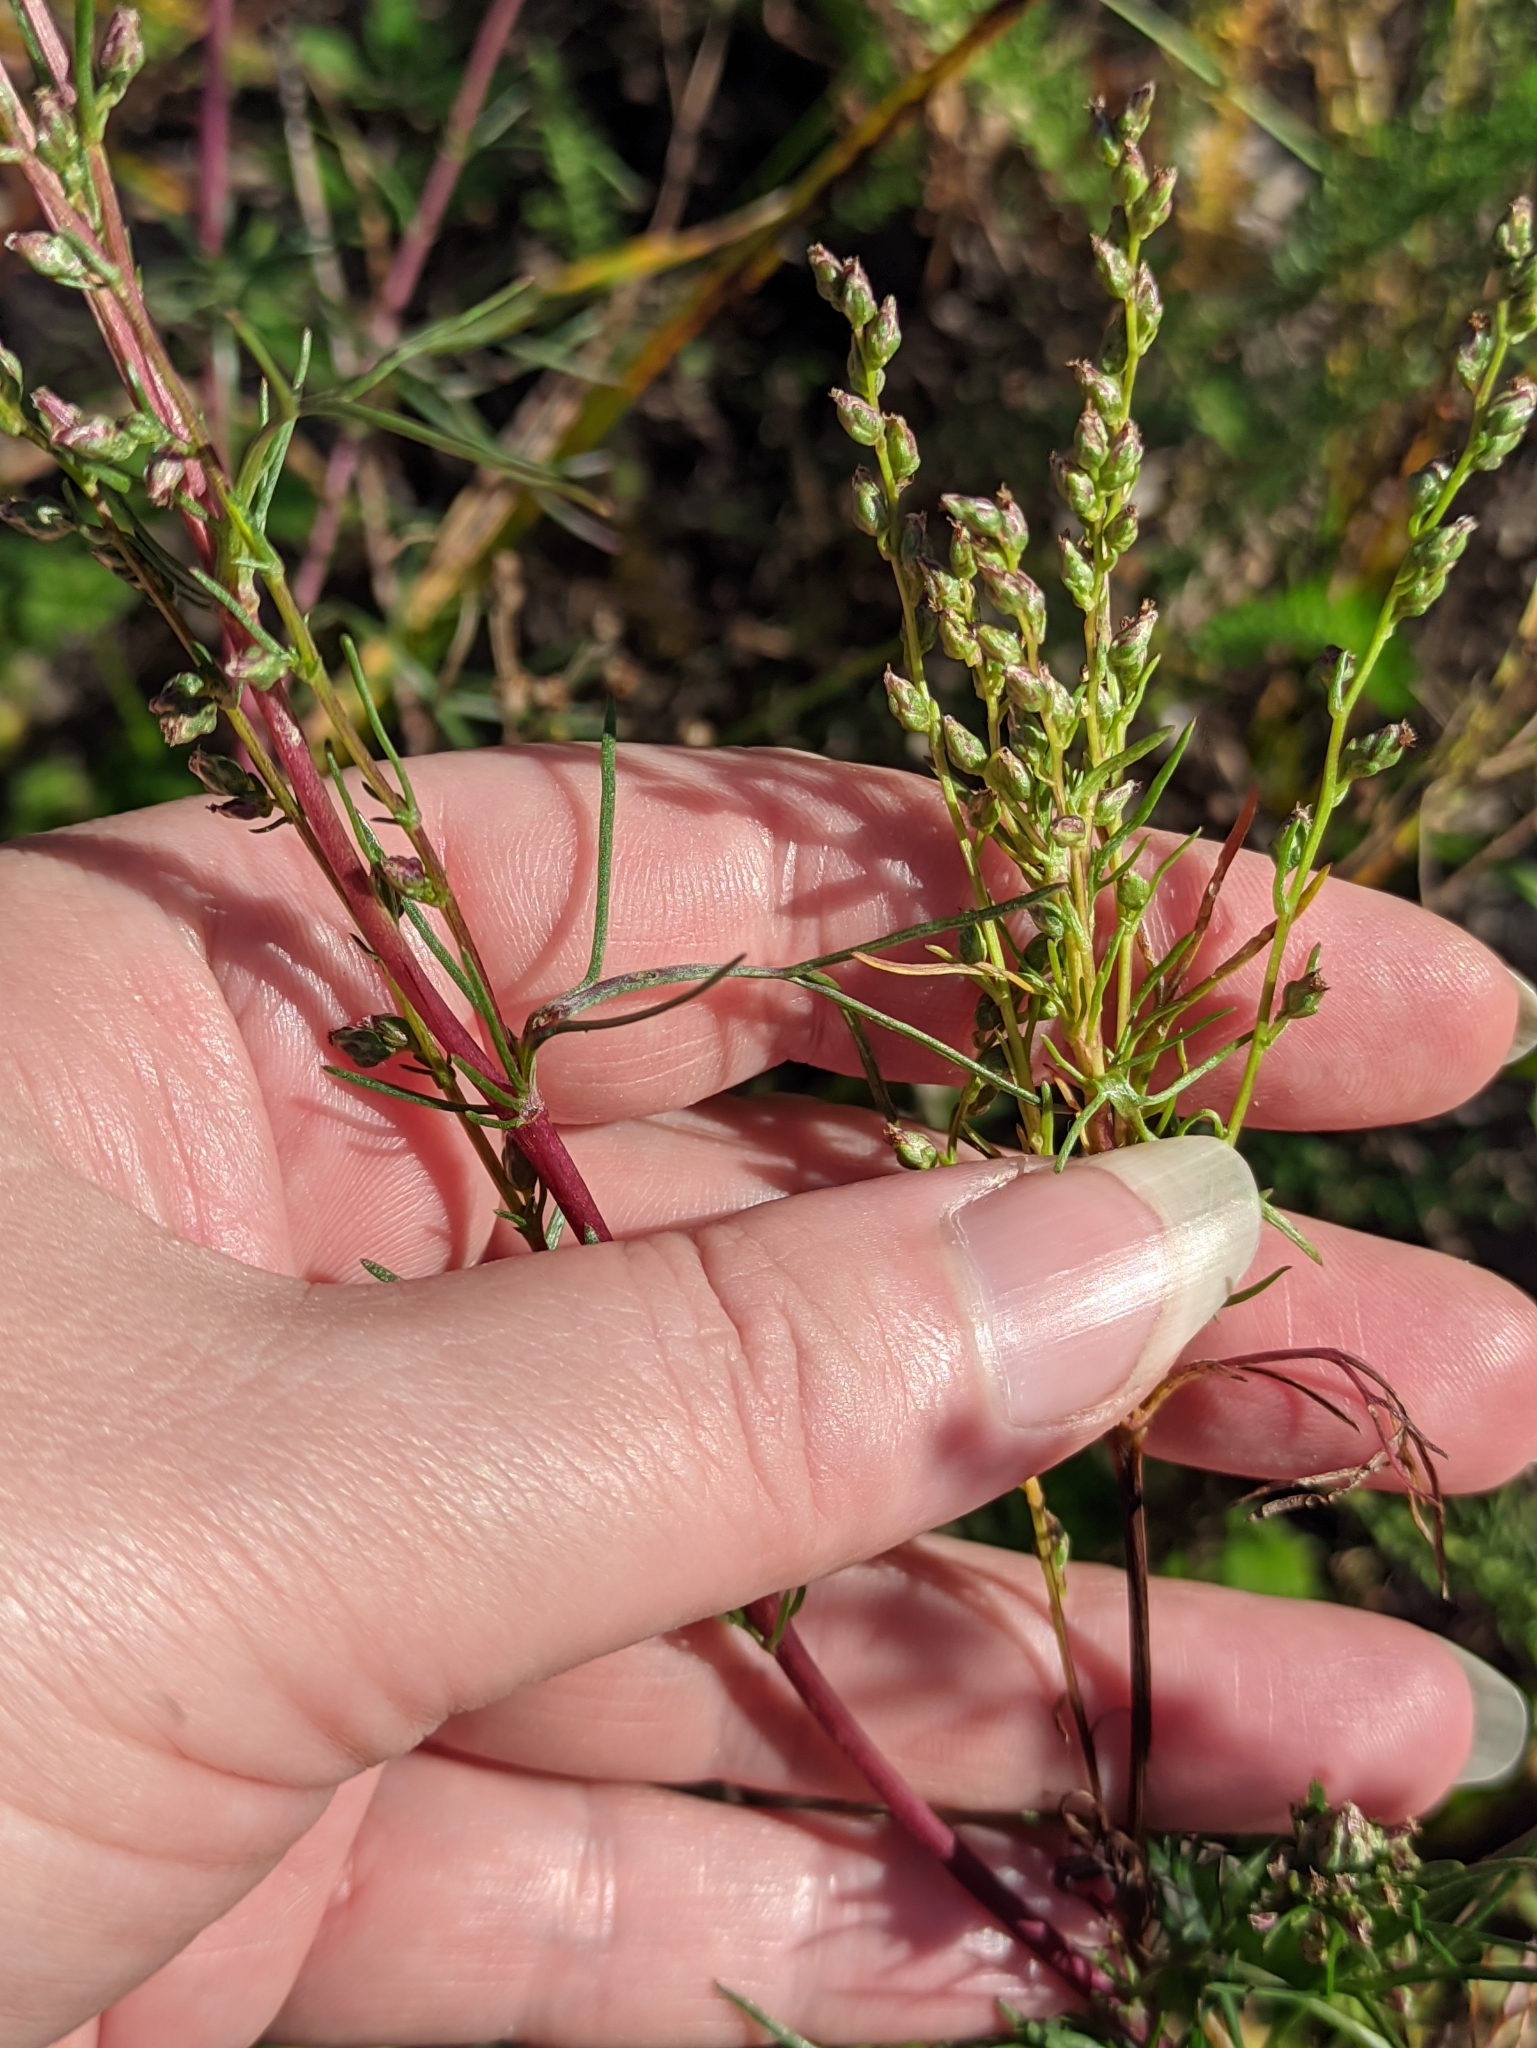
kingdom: Plantae
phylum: Tracheophyta
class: Magnoliopsida
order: Asterales
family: Asteraceae
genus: Artemisia
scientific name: Artemisia campestris
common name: Field wormwood
